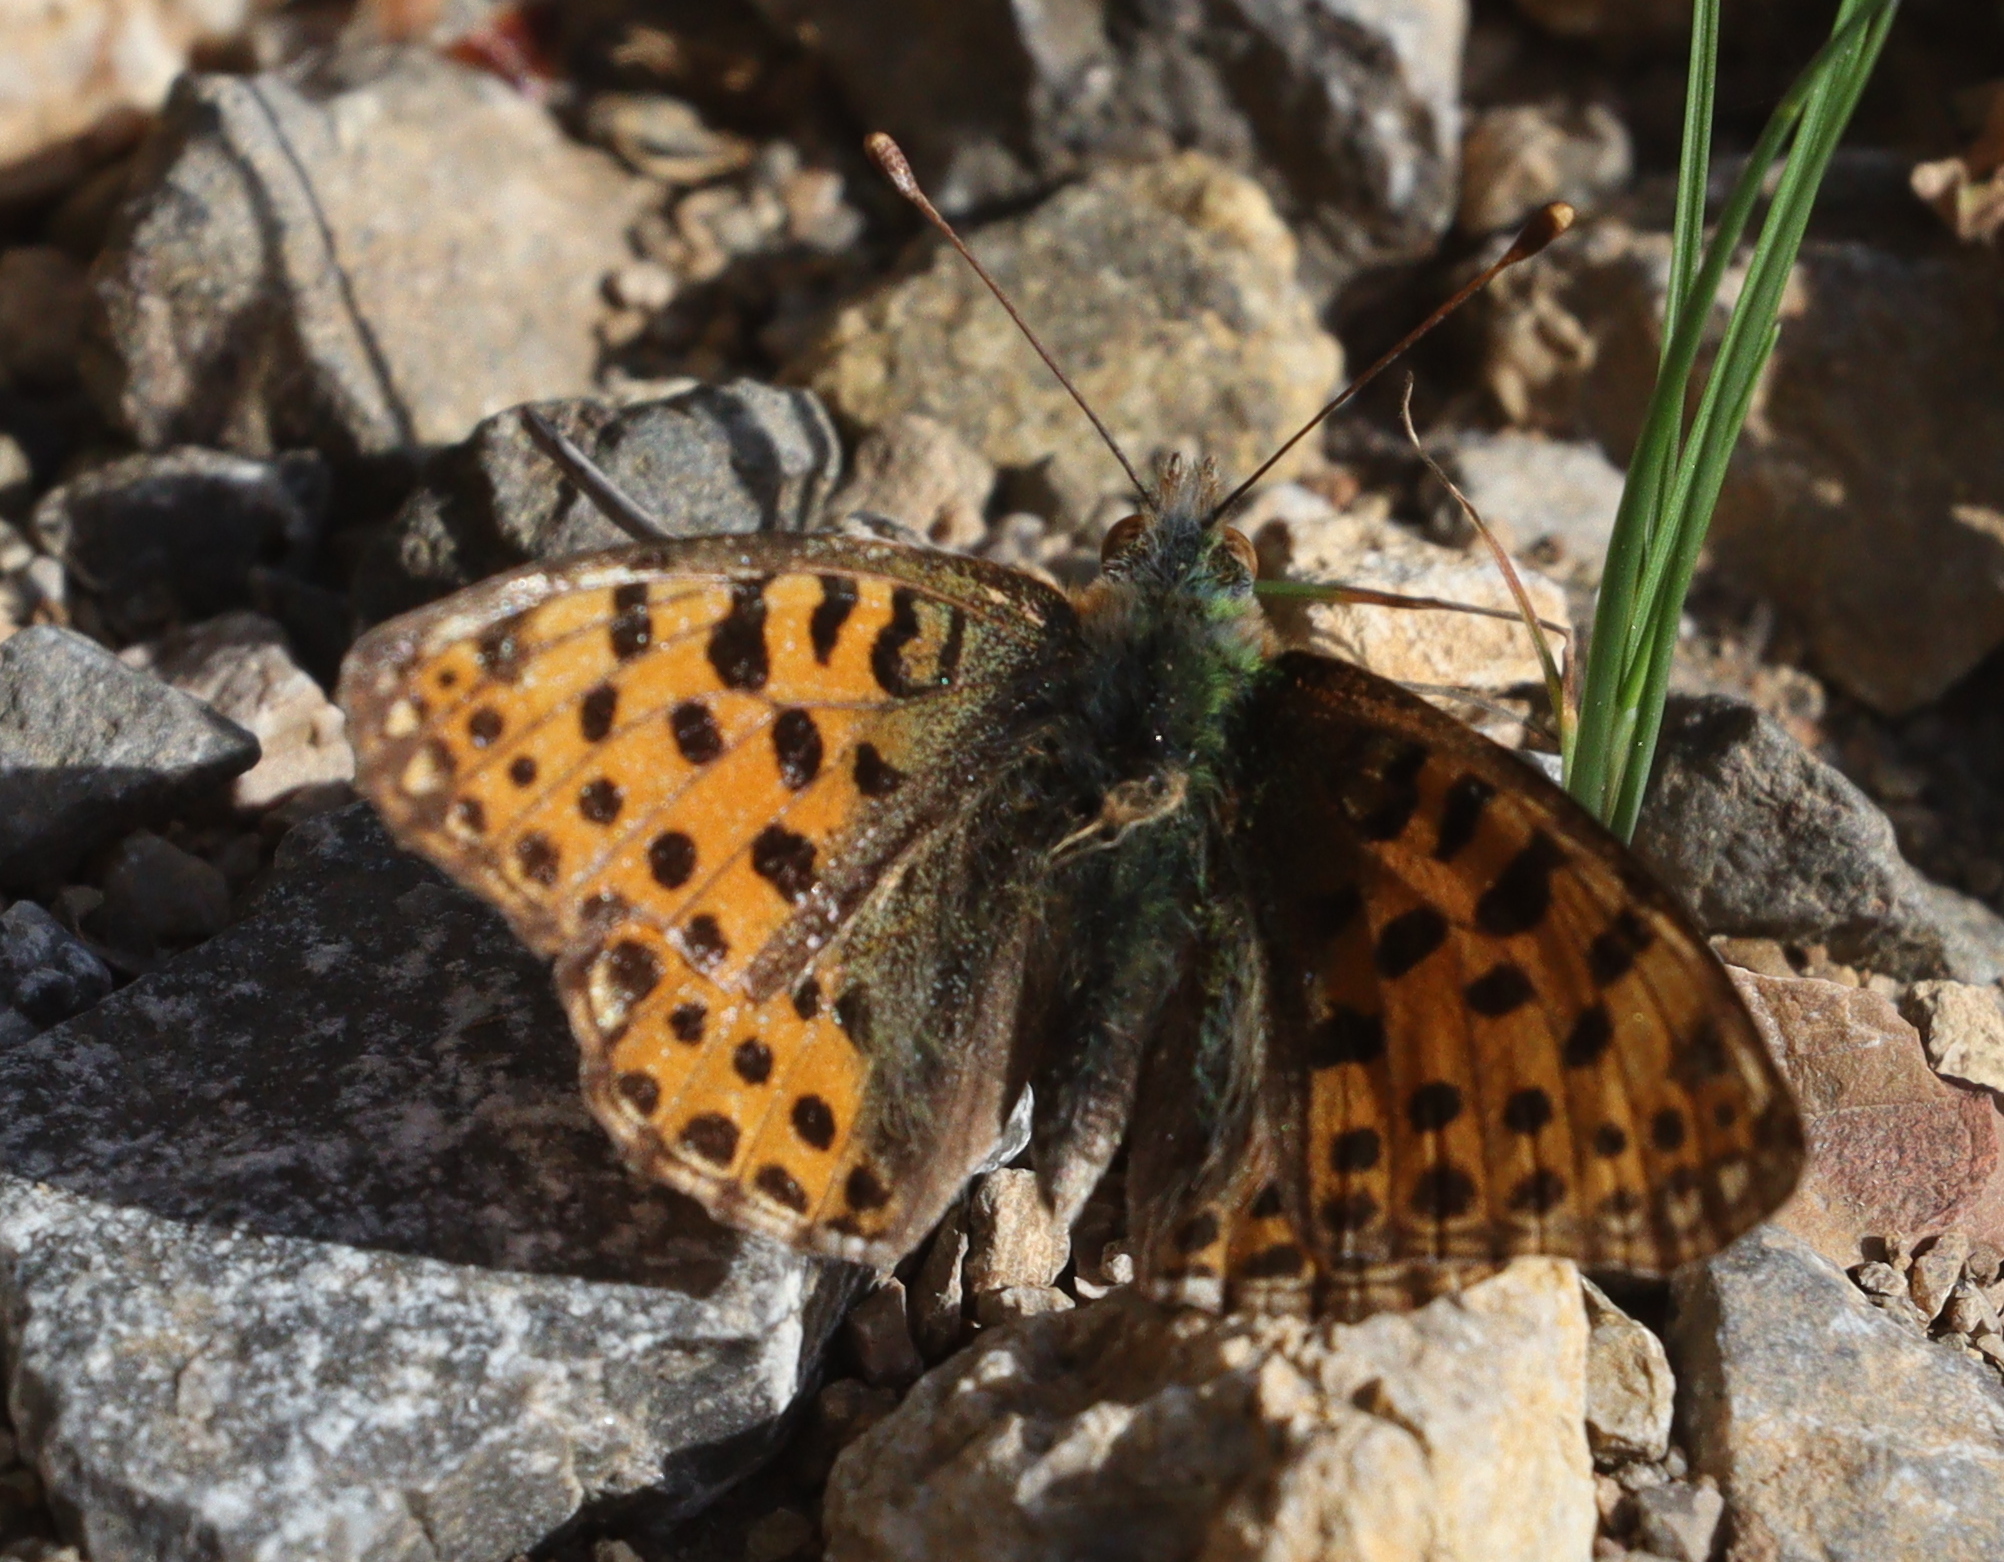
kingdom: Animalia
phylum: Arthropoda
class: Insecta
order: Lepidoptera
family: Nymphalidae
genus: Issoria
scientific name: Issoria lathonia
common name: Queen of spain fritillary
